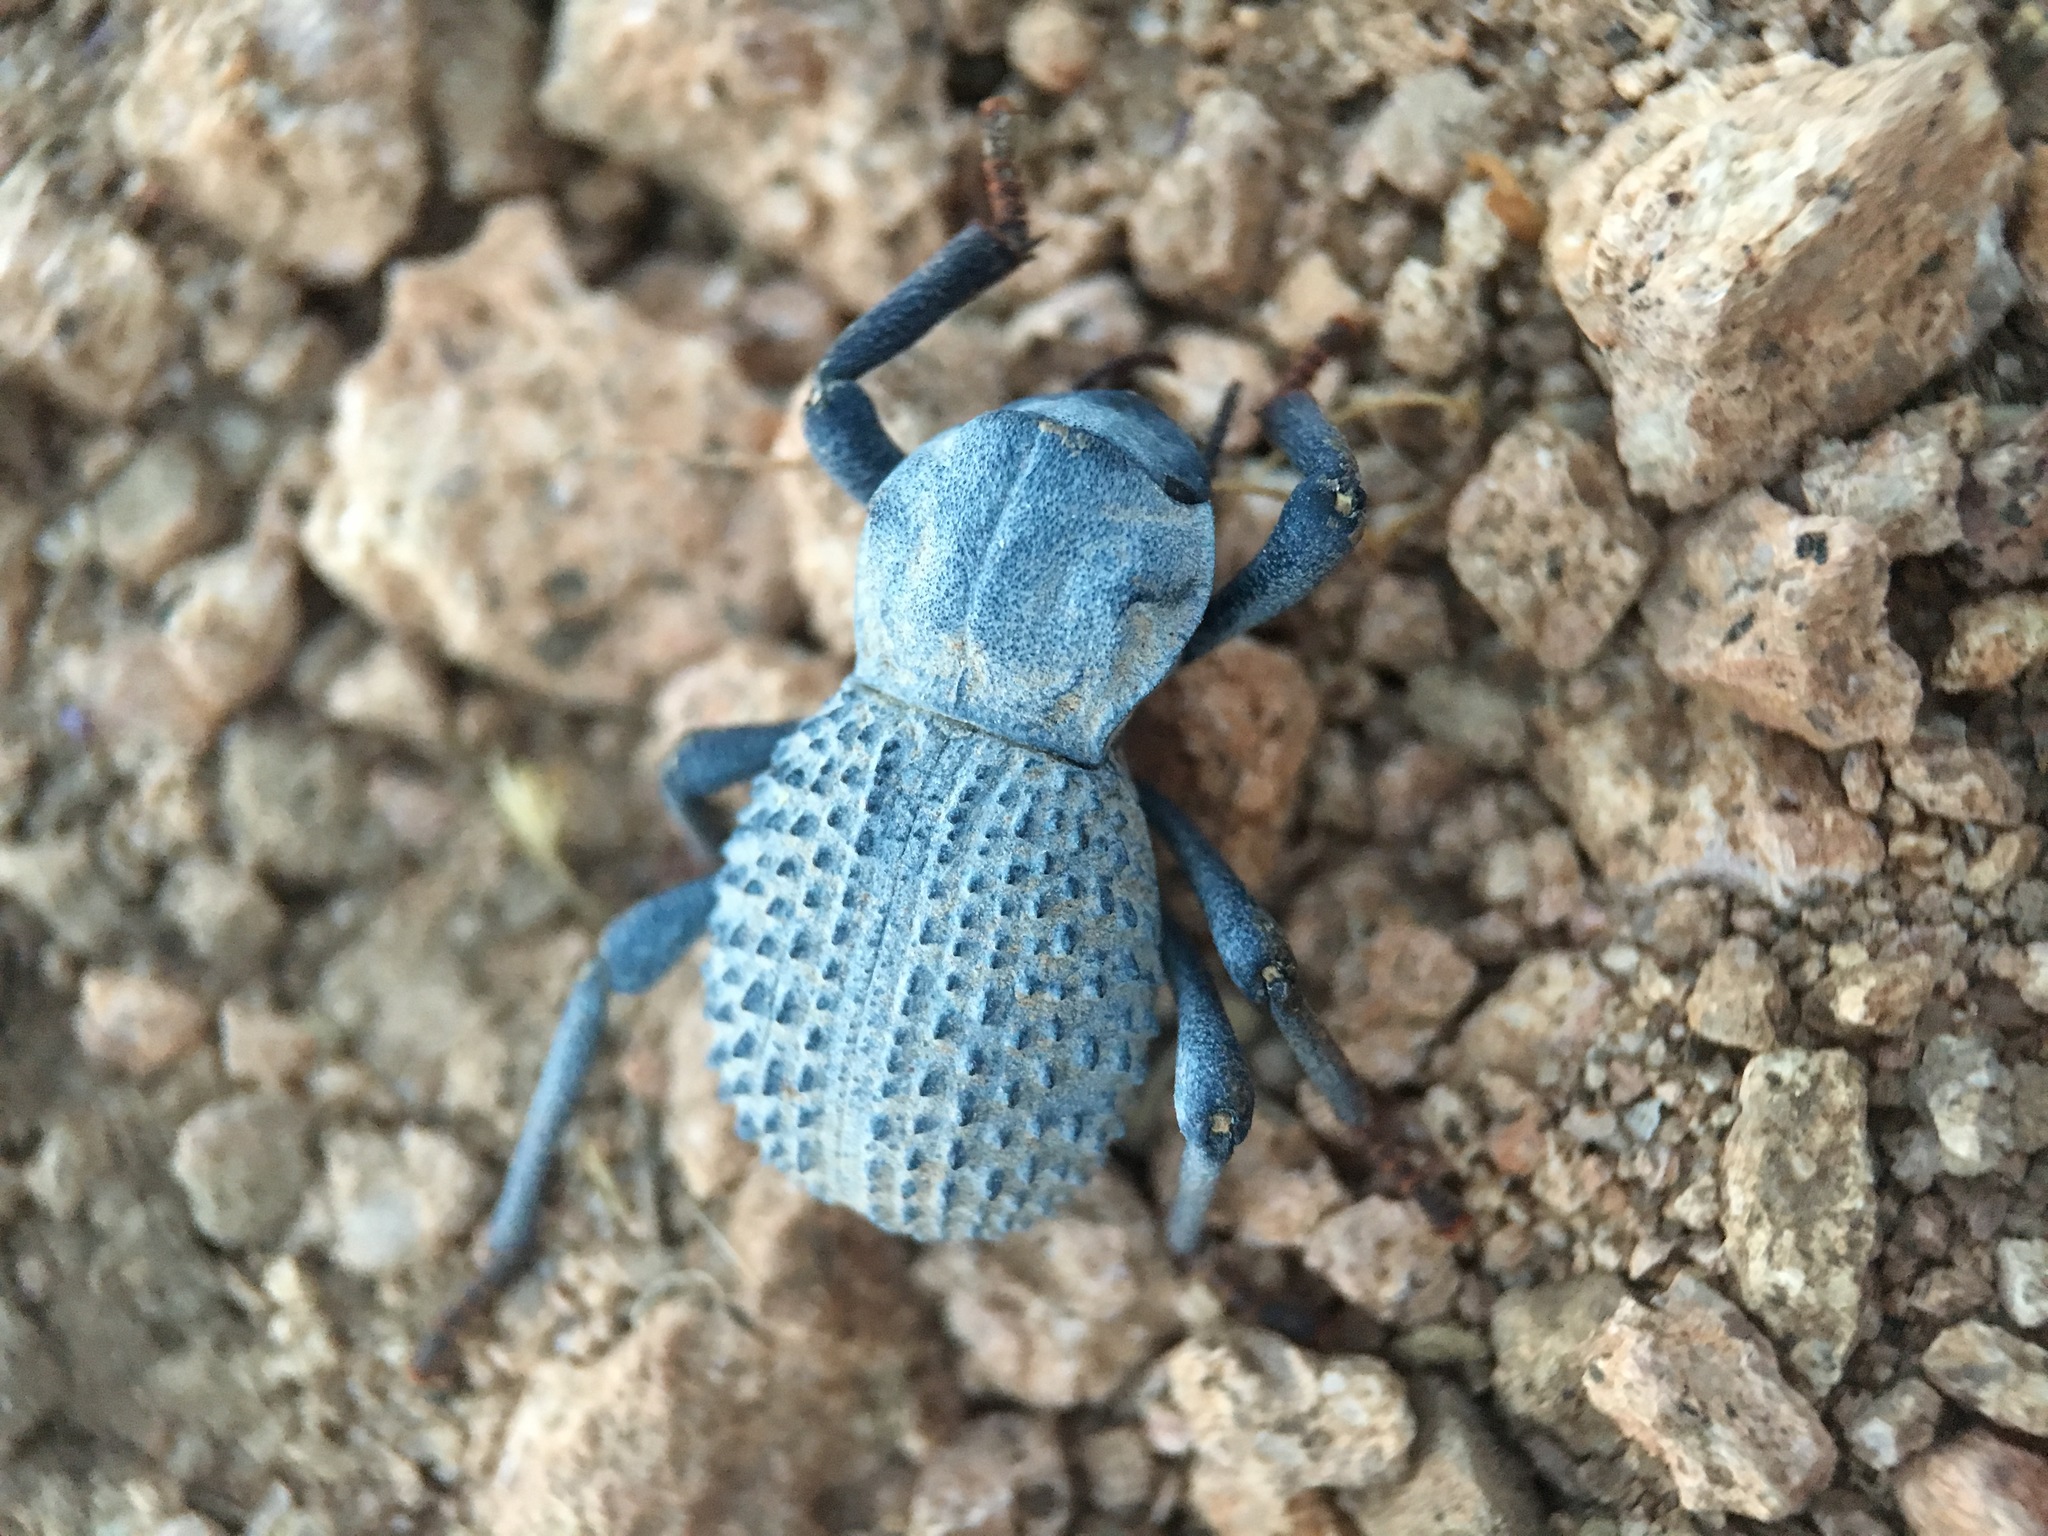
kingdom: Animalia
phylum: Arthropoda
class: Insecta
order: Coleoptera
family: Tenebrionidae
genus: Asbolus
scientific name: Asbolus verrucosus
